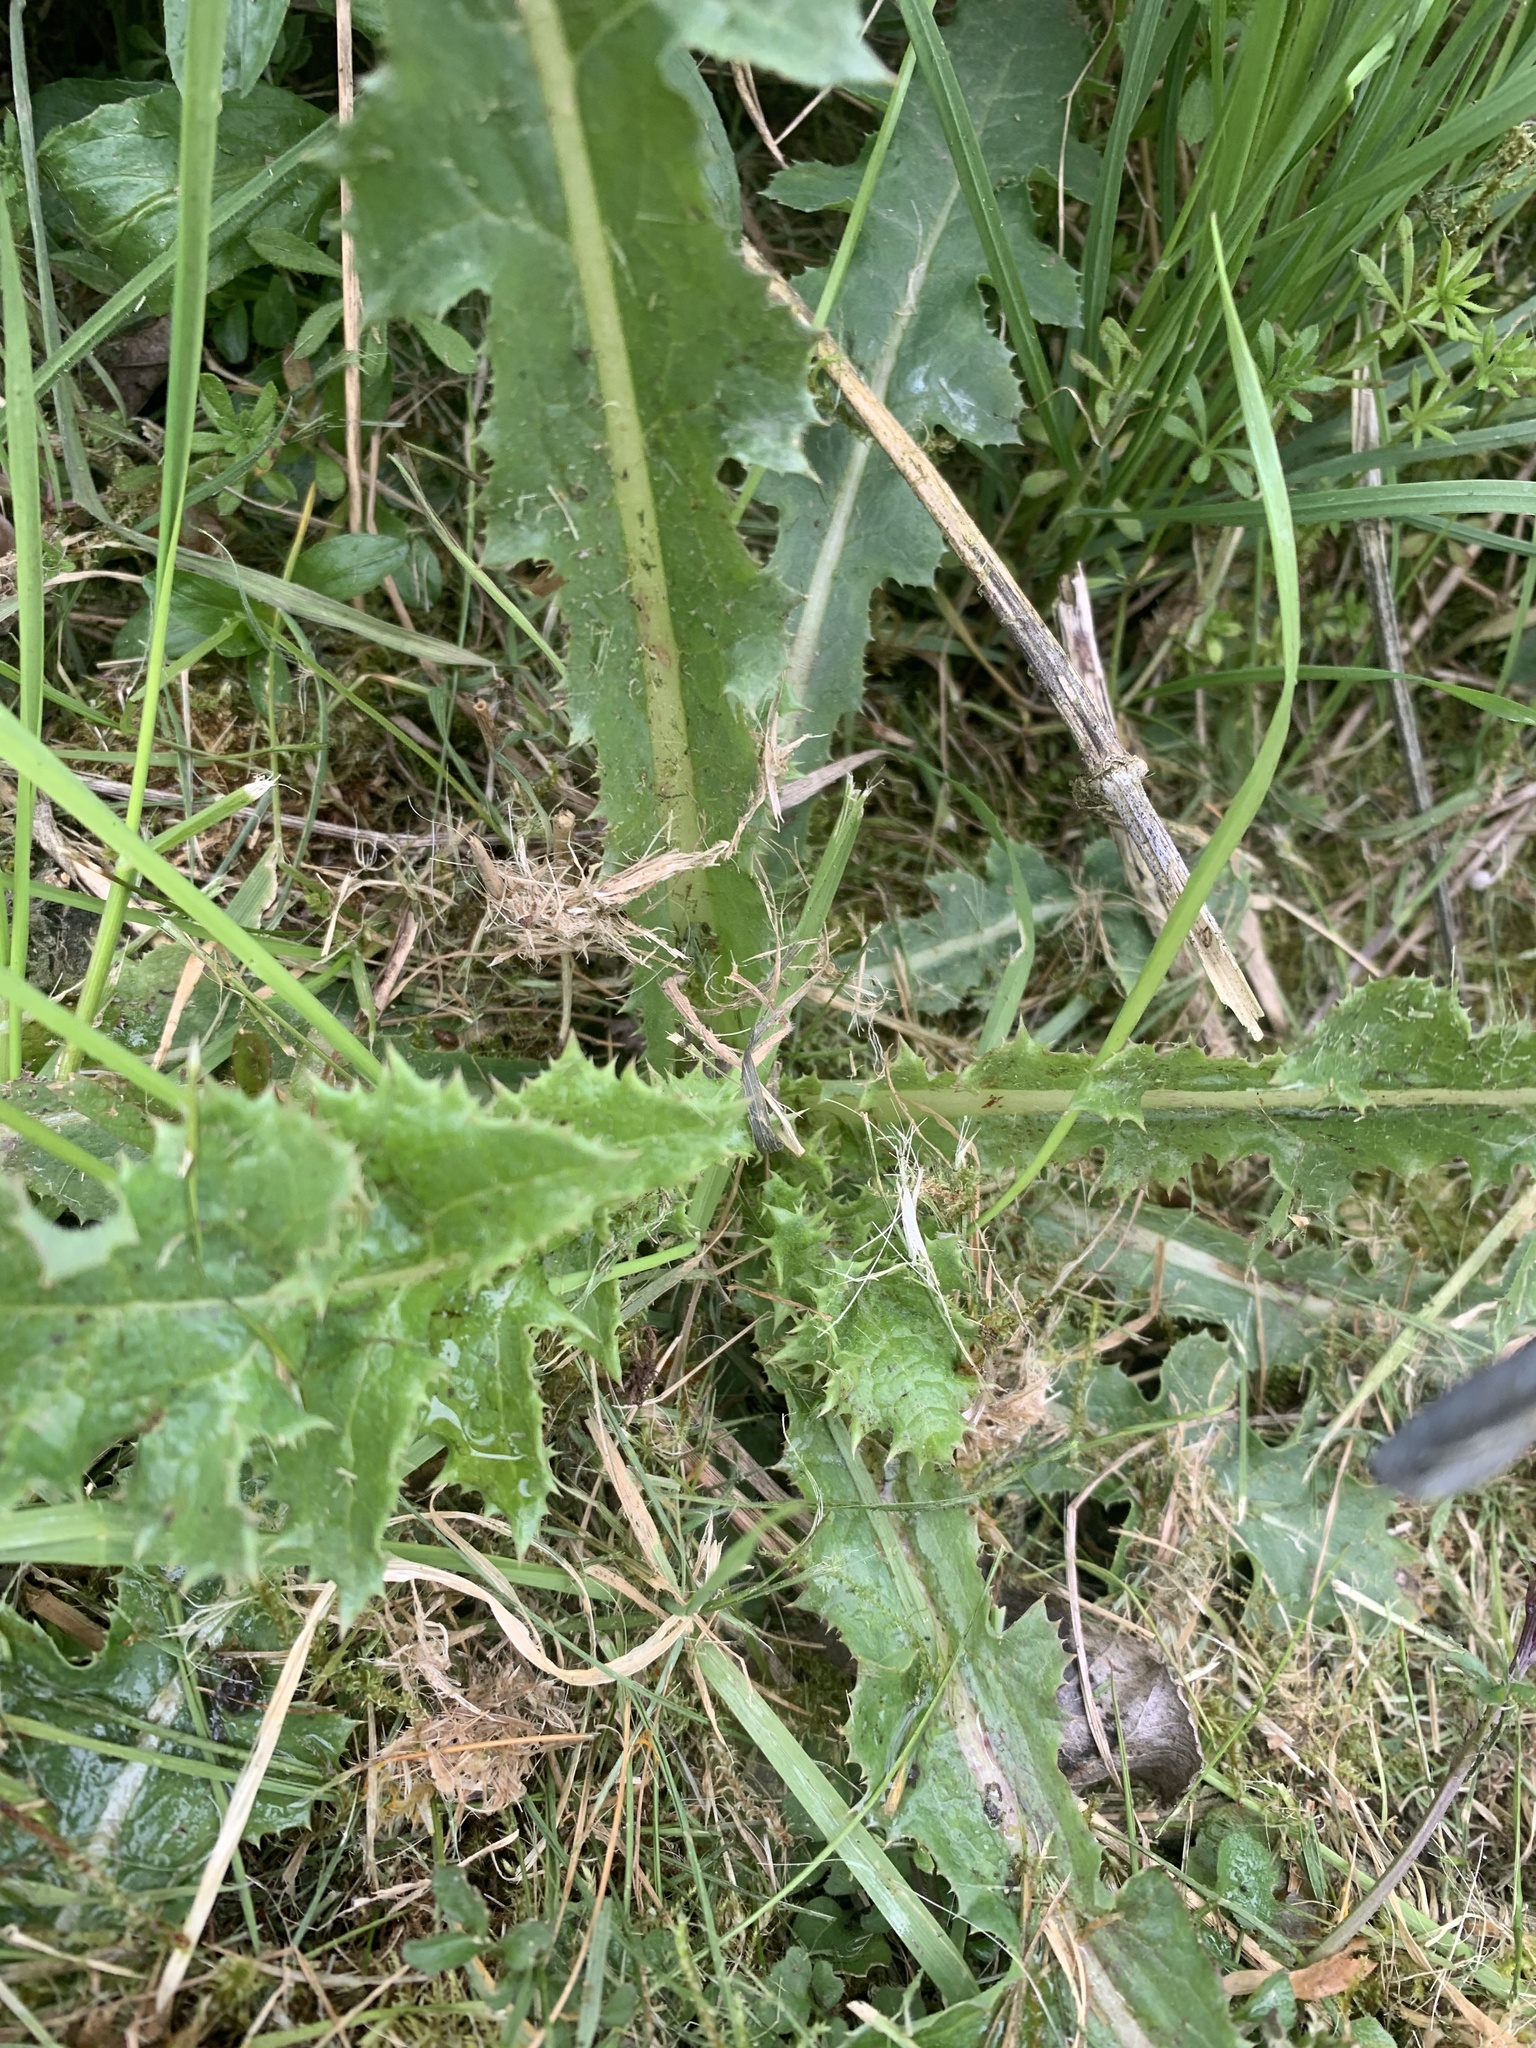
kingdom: Plantae
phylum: Tracheophyta
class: Magnoliopsida
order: Asterales
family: Asteraceae
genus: Cirsium
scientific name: Cirsium arvense
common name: Creeping thistle
